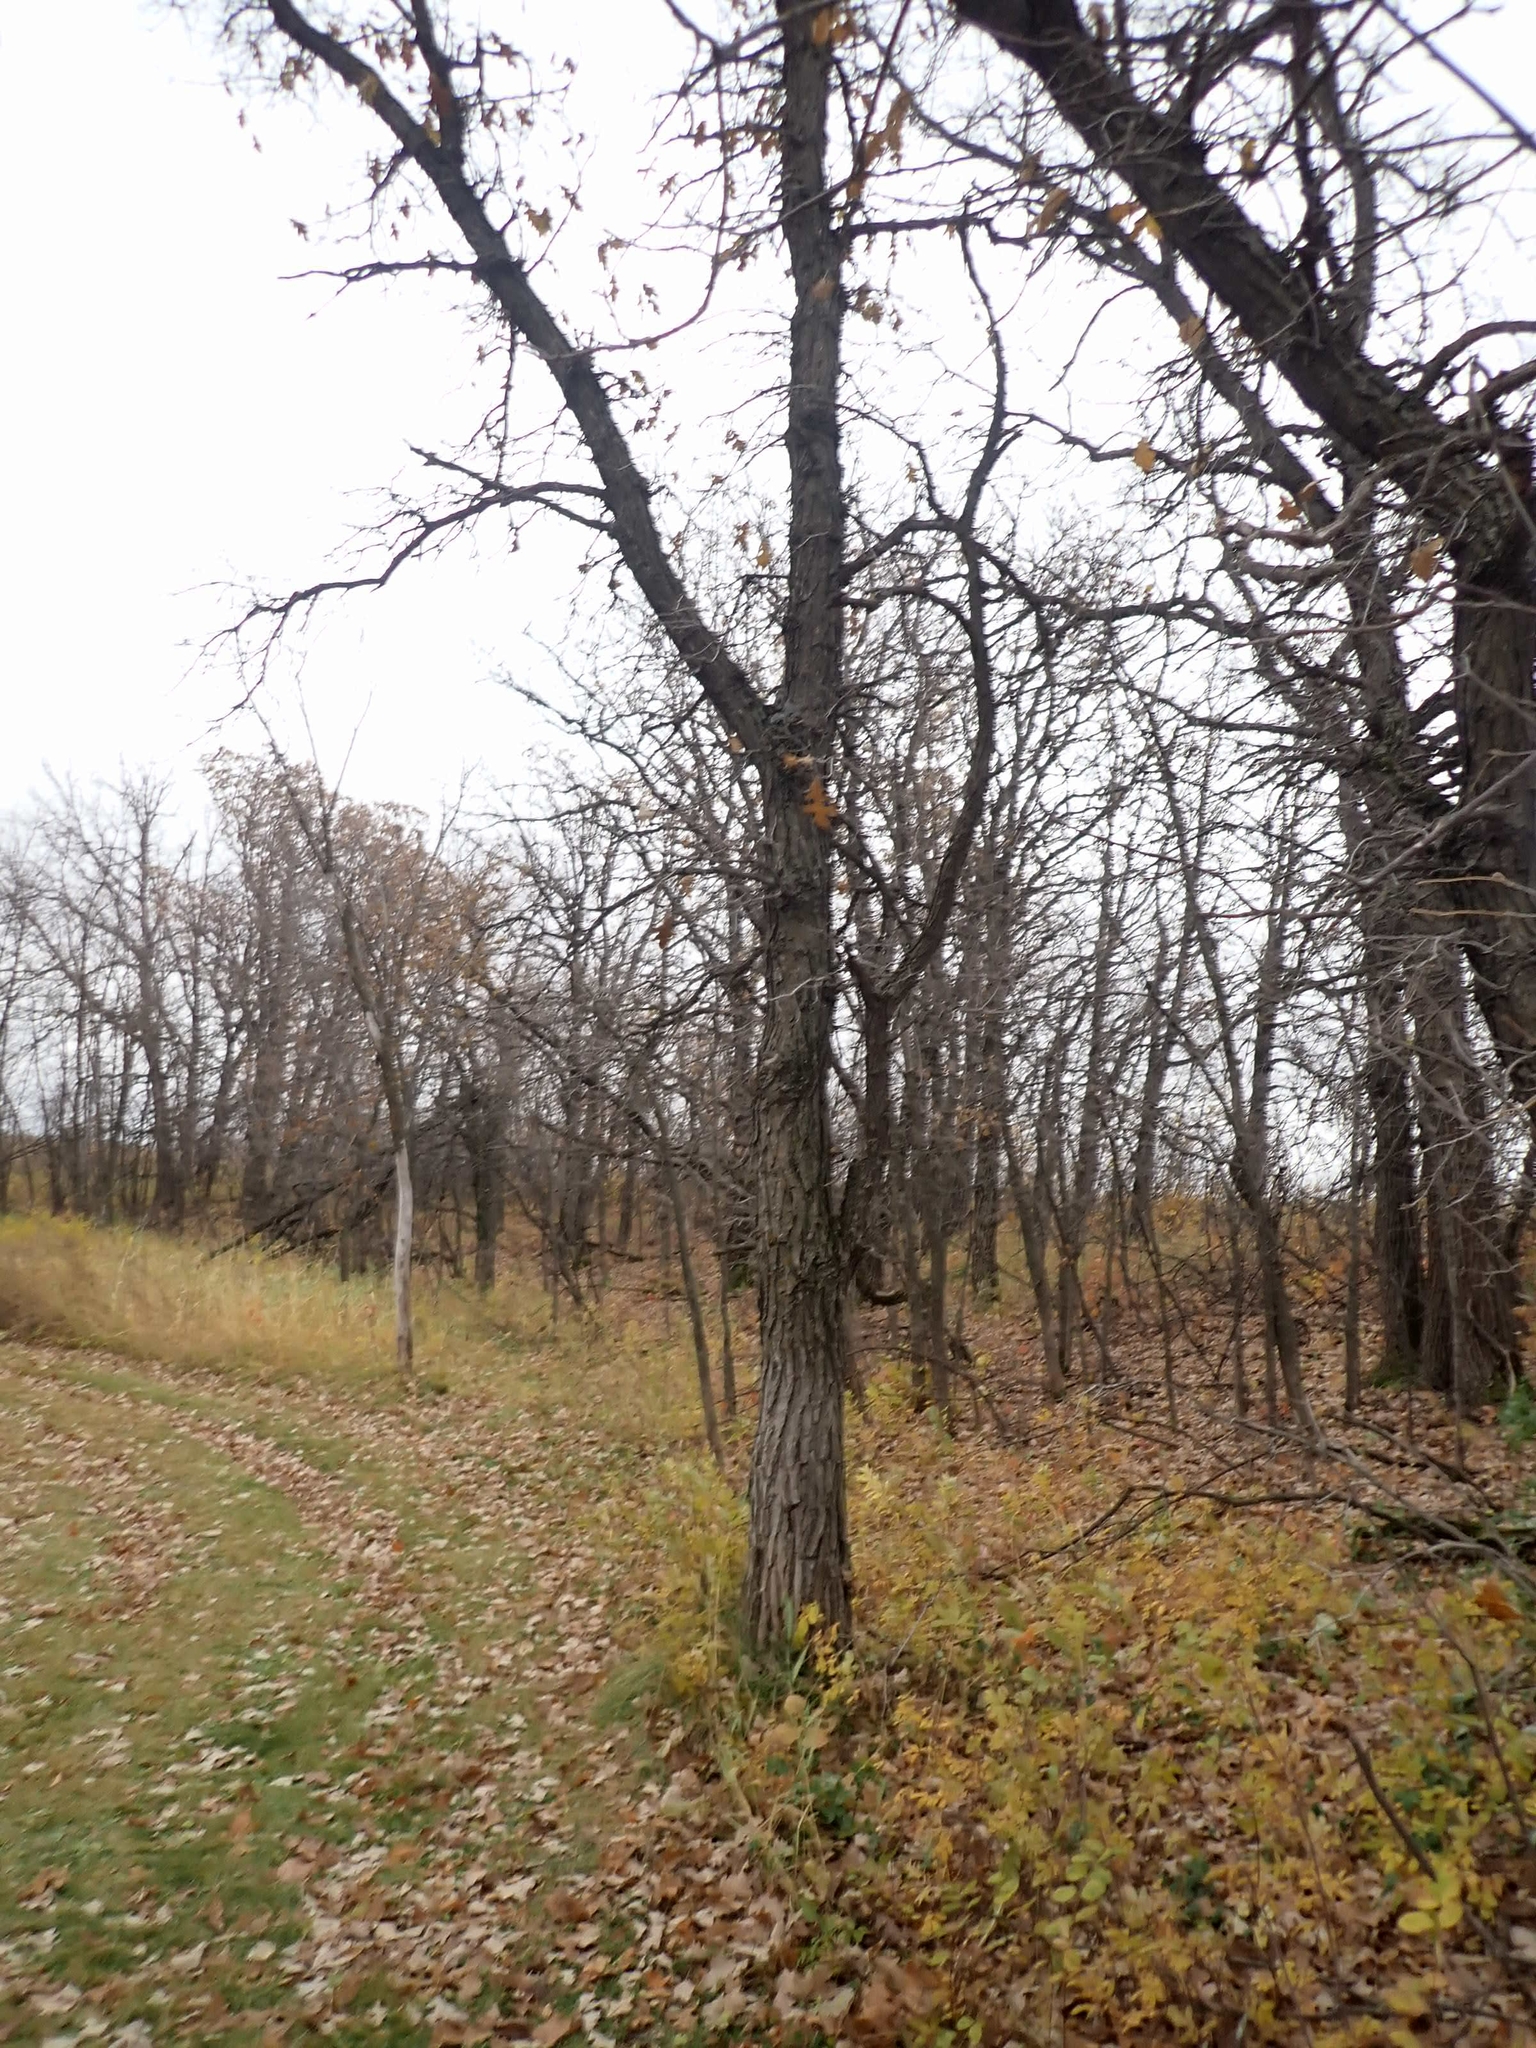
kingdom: Plantae
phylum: Tracheophyta
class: Magnoliopsida
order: Fagales
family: Fagaceae
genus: Quercus
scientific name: Quercus macrocarpa
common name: Bur oak
